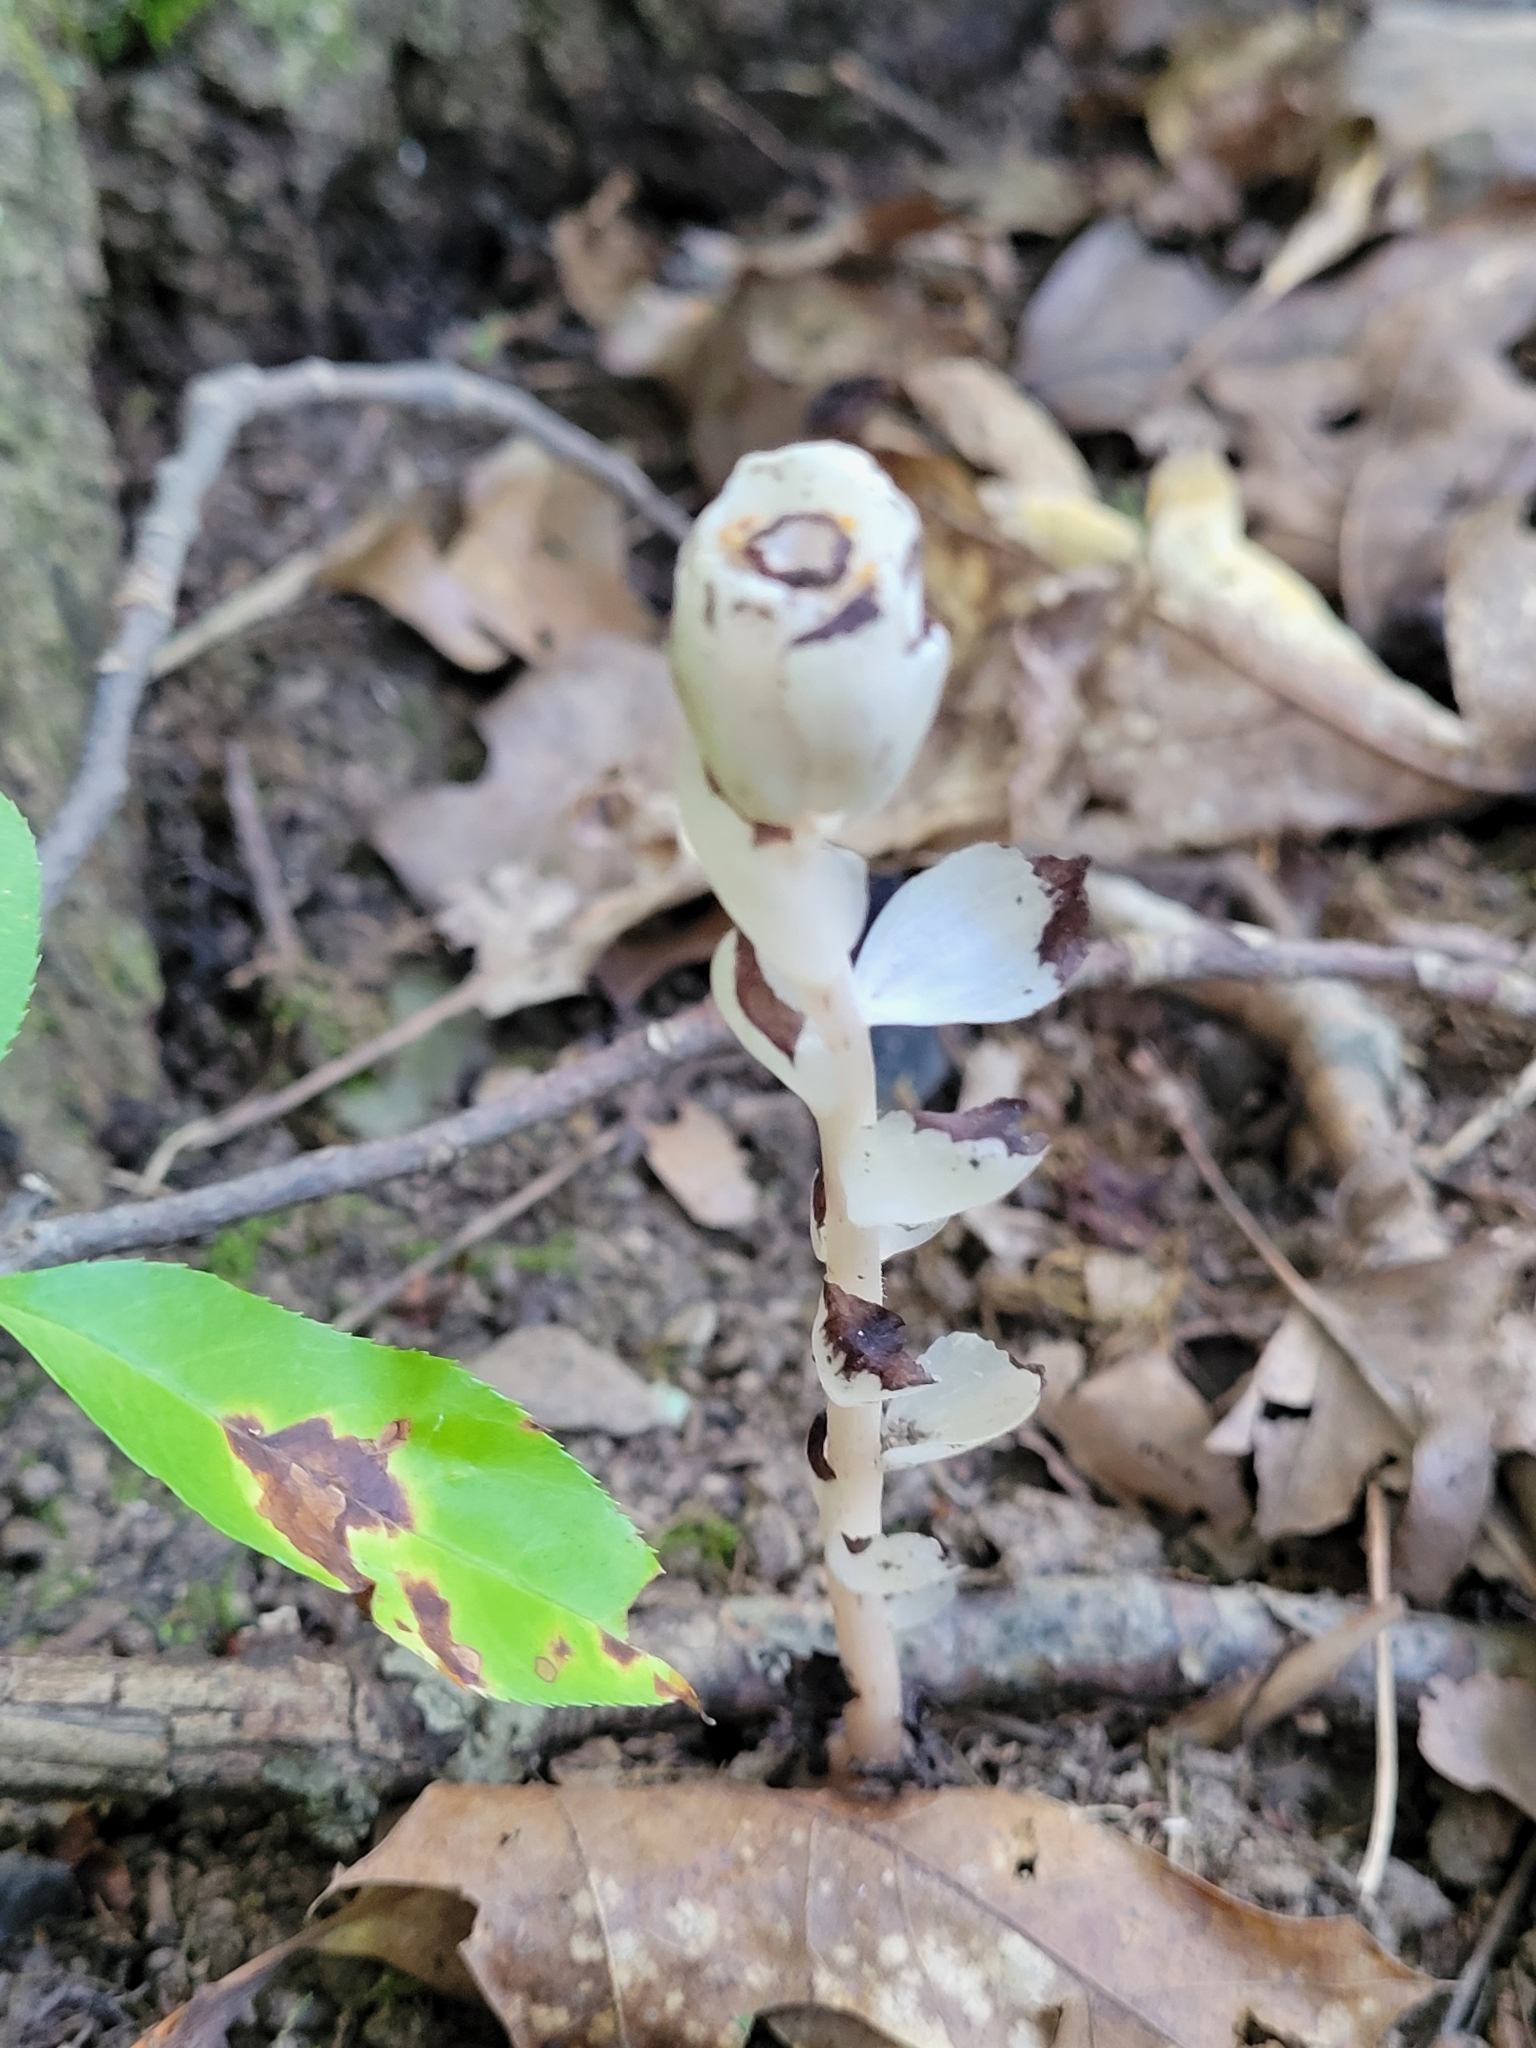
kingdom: Plantae
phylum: Tracheophyta
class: Magnoliopsida
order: Ericales
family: Ericaceae
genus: Monotropa
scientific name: Monotropa uniflora
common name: Convulsion root
